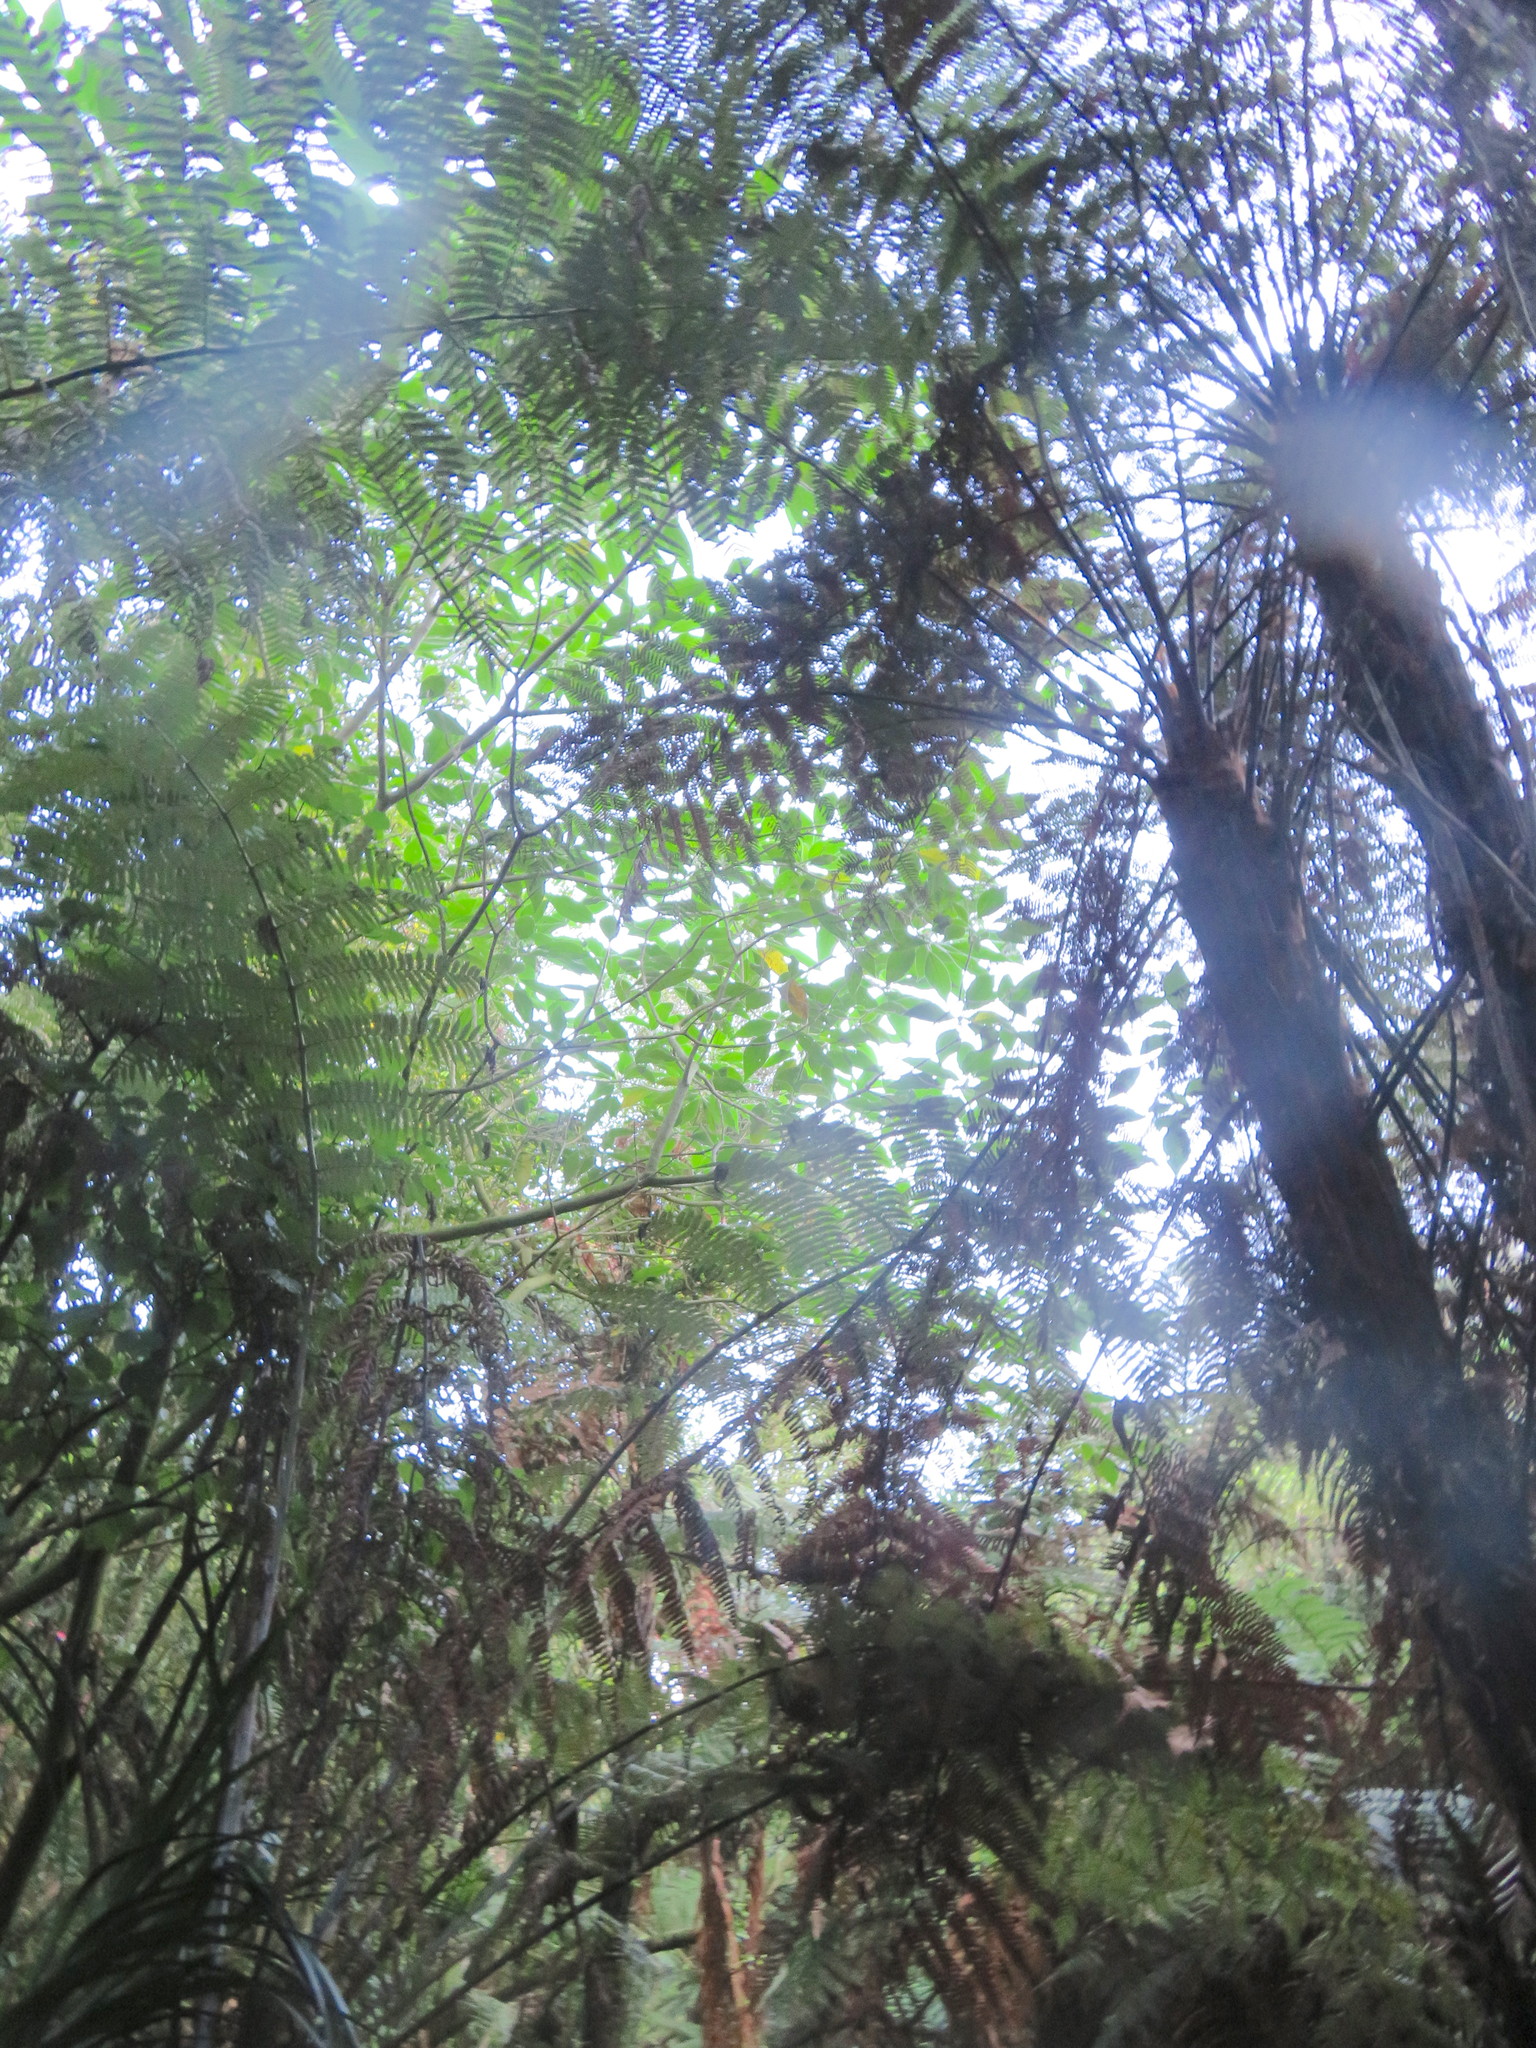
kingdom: Plantae
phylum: Tracheophyta
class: Magnoliopsida
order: Solanales
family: Solanaceae
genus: Solanum
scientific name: Solanum mauritianum
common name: Earleaf nightshade
